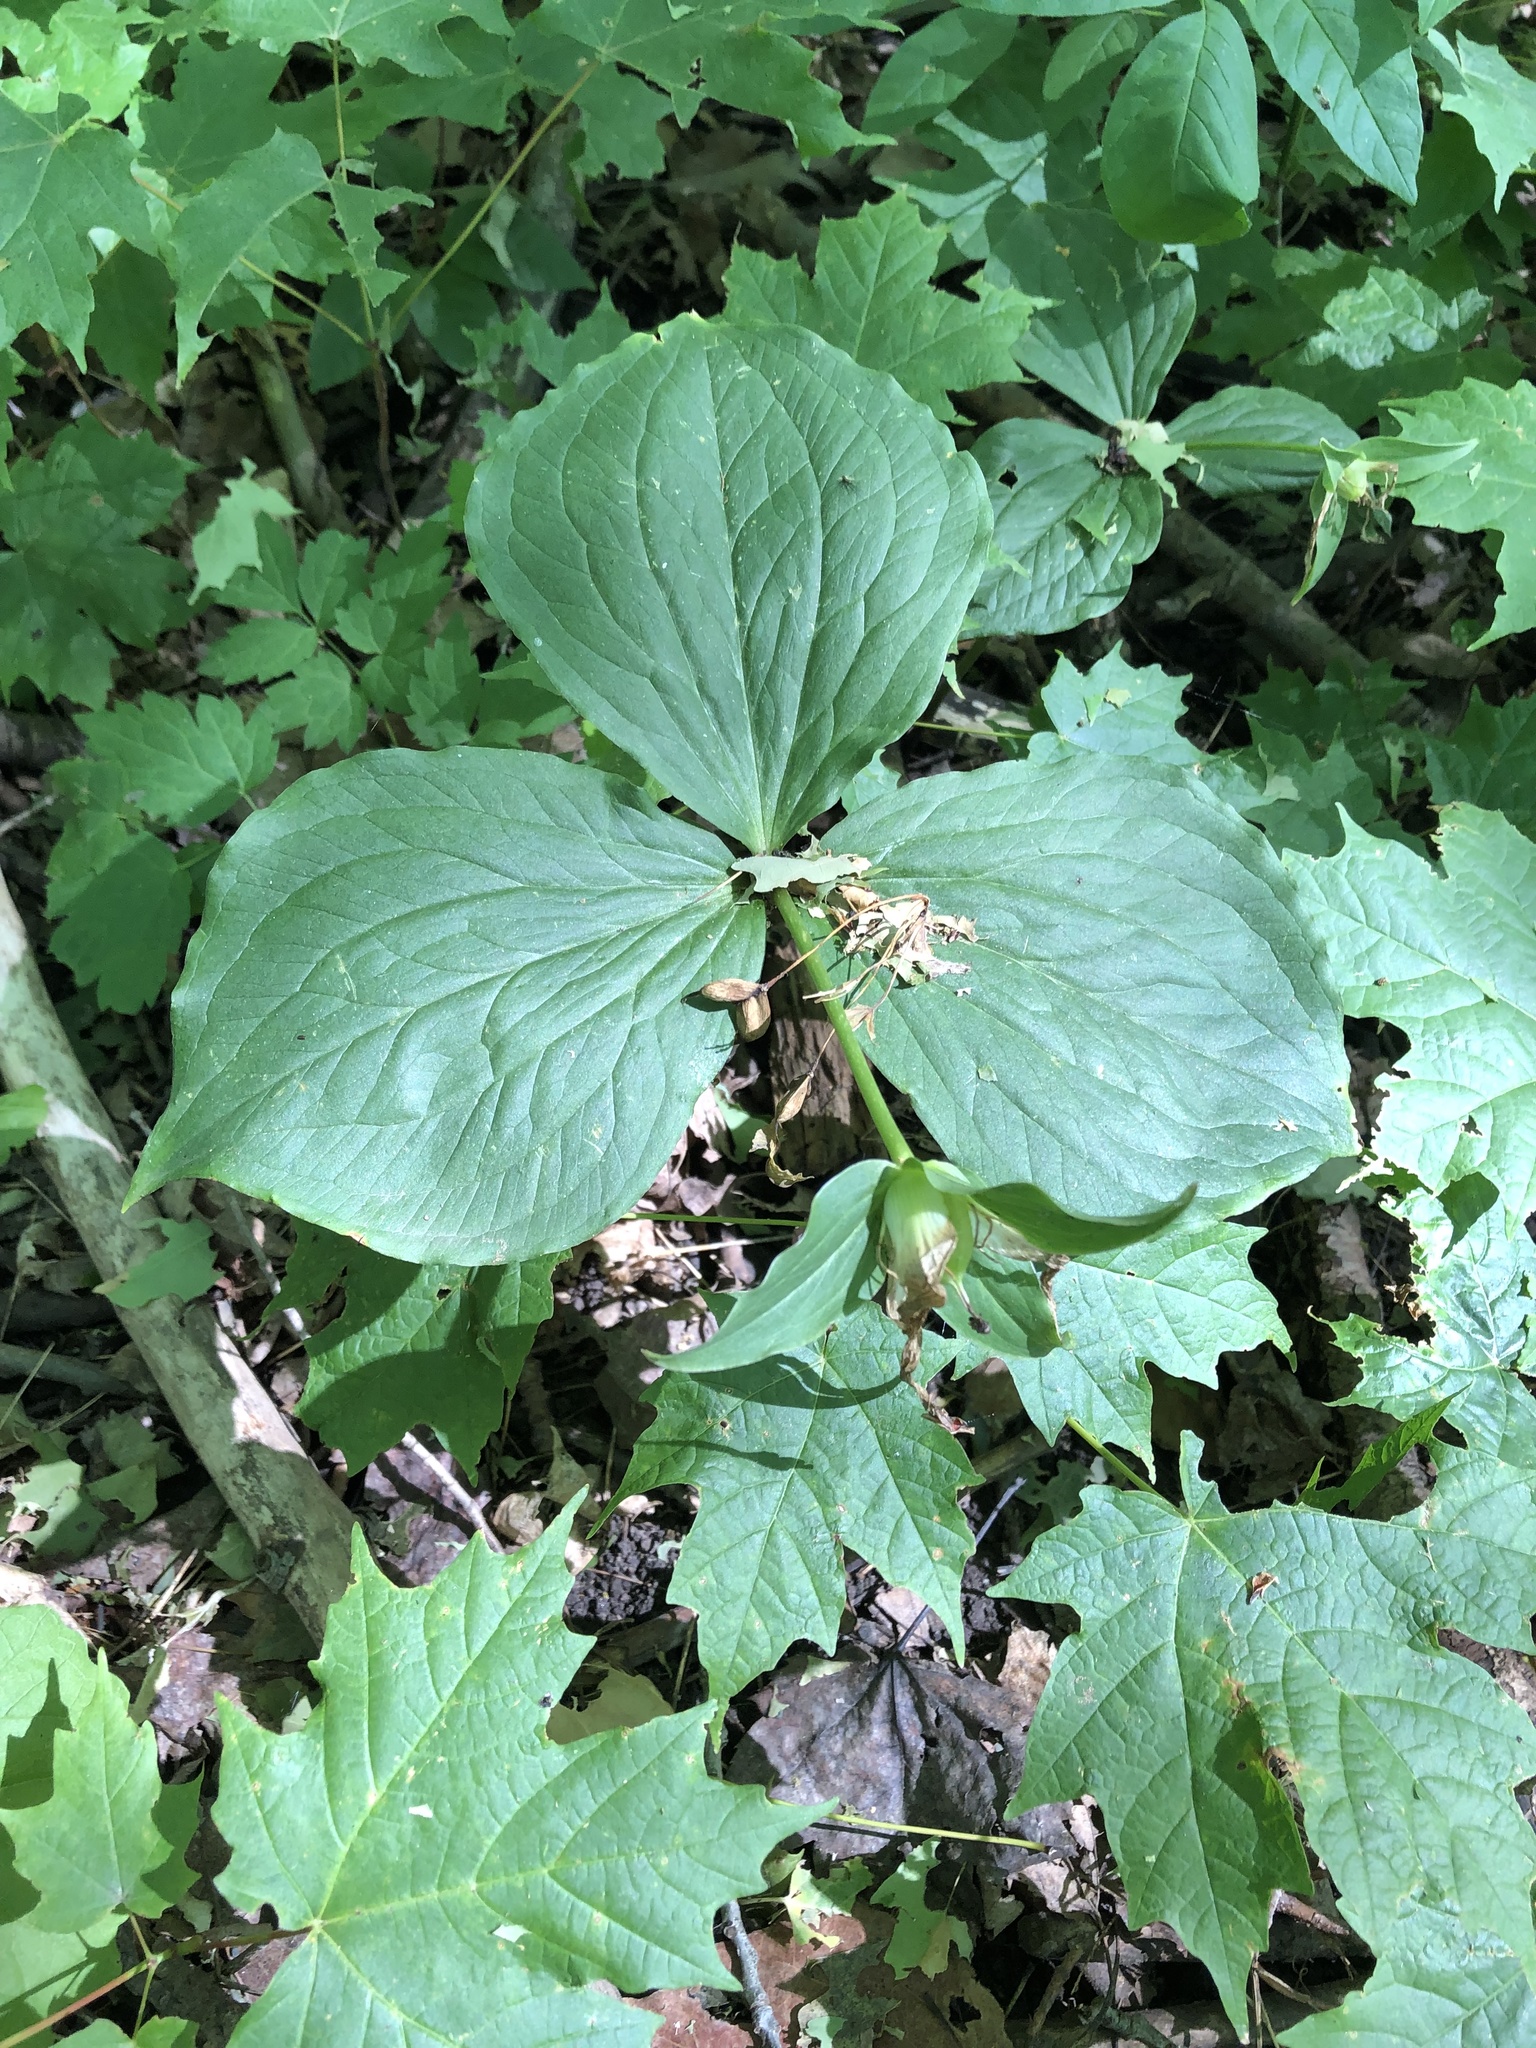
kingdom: Plantae
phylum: Tracheophyta
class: Liliopsida
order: Liliales
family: Melanthiaceae
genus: Trillium
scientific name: Trillium grandiflorum
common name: Great white trillium
